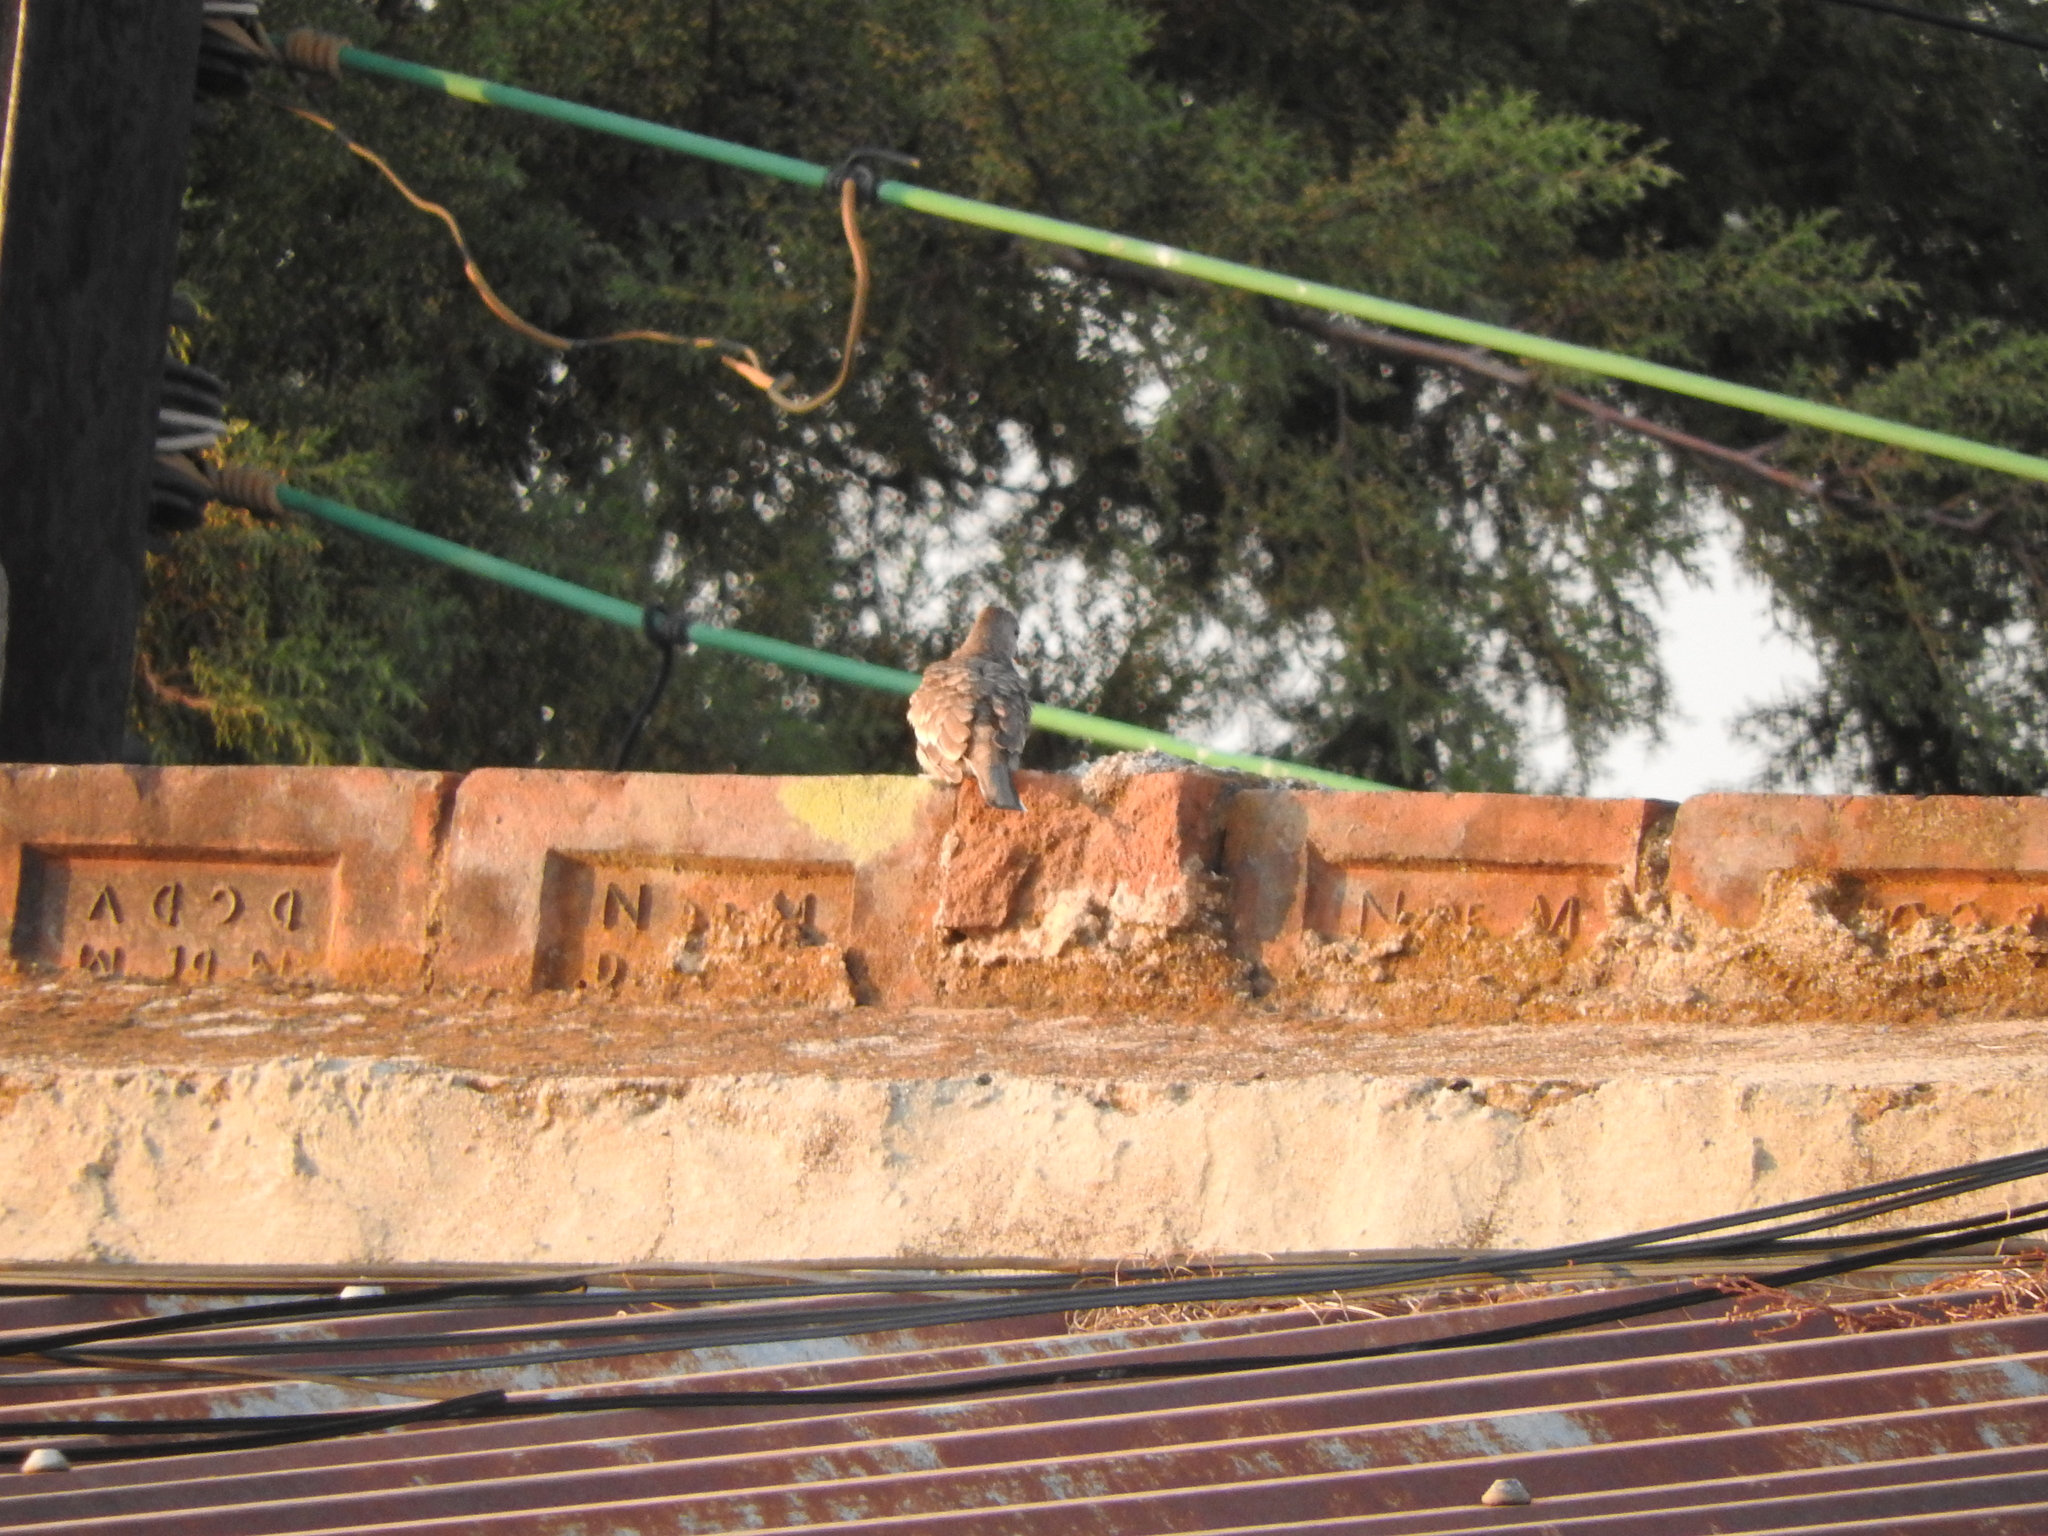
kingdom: Animalia
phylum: Chordata
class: Aves
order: Columbiformes
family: Columbidae
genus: Columbina
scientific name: Columbina inca
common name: Inca dove
